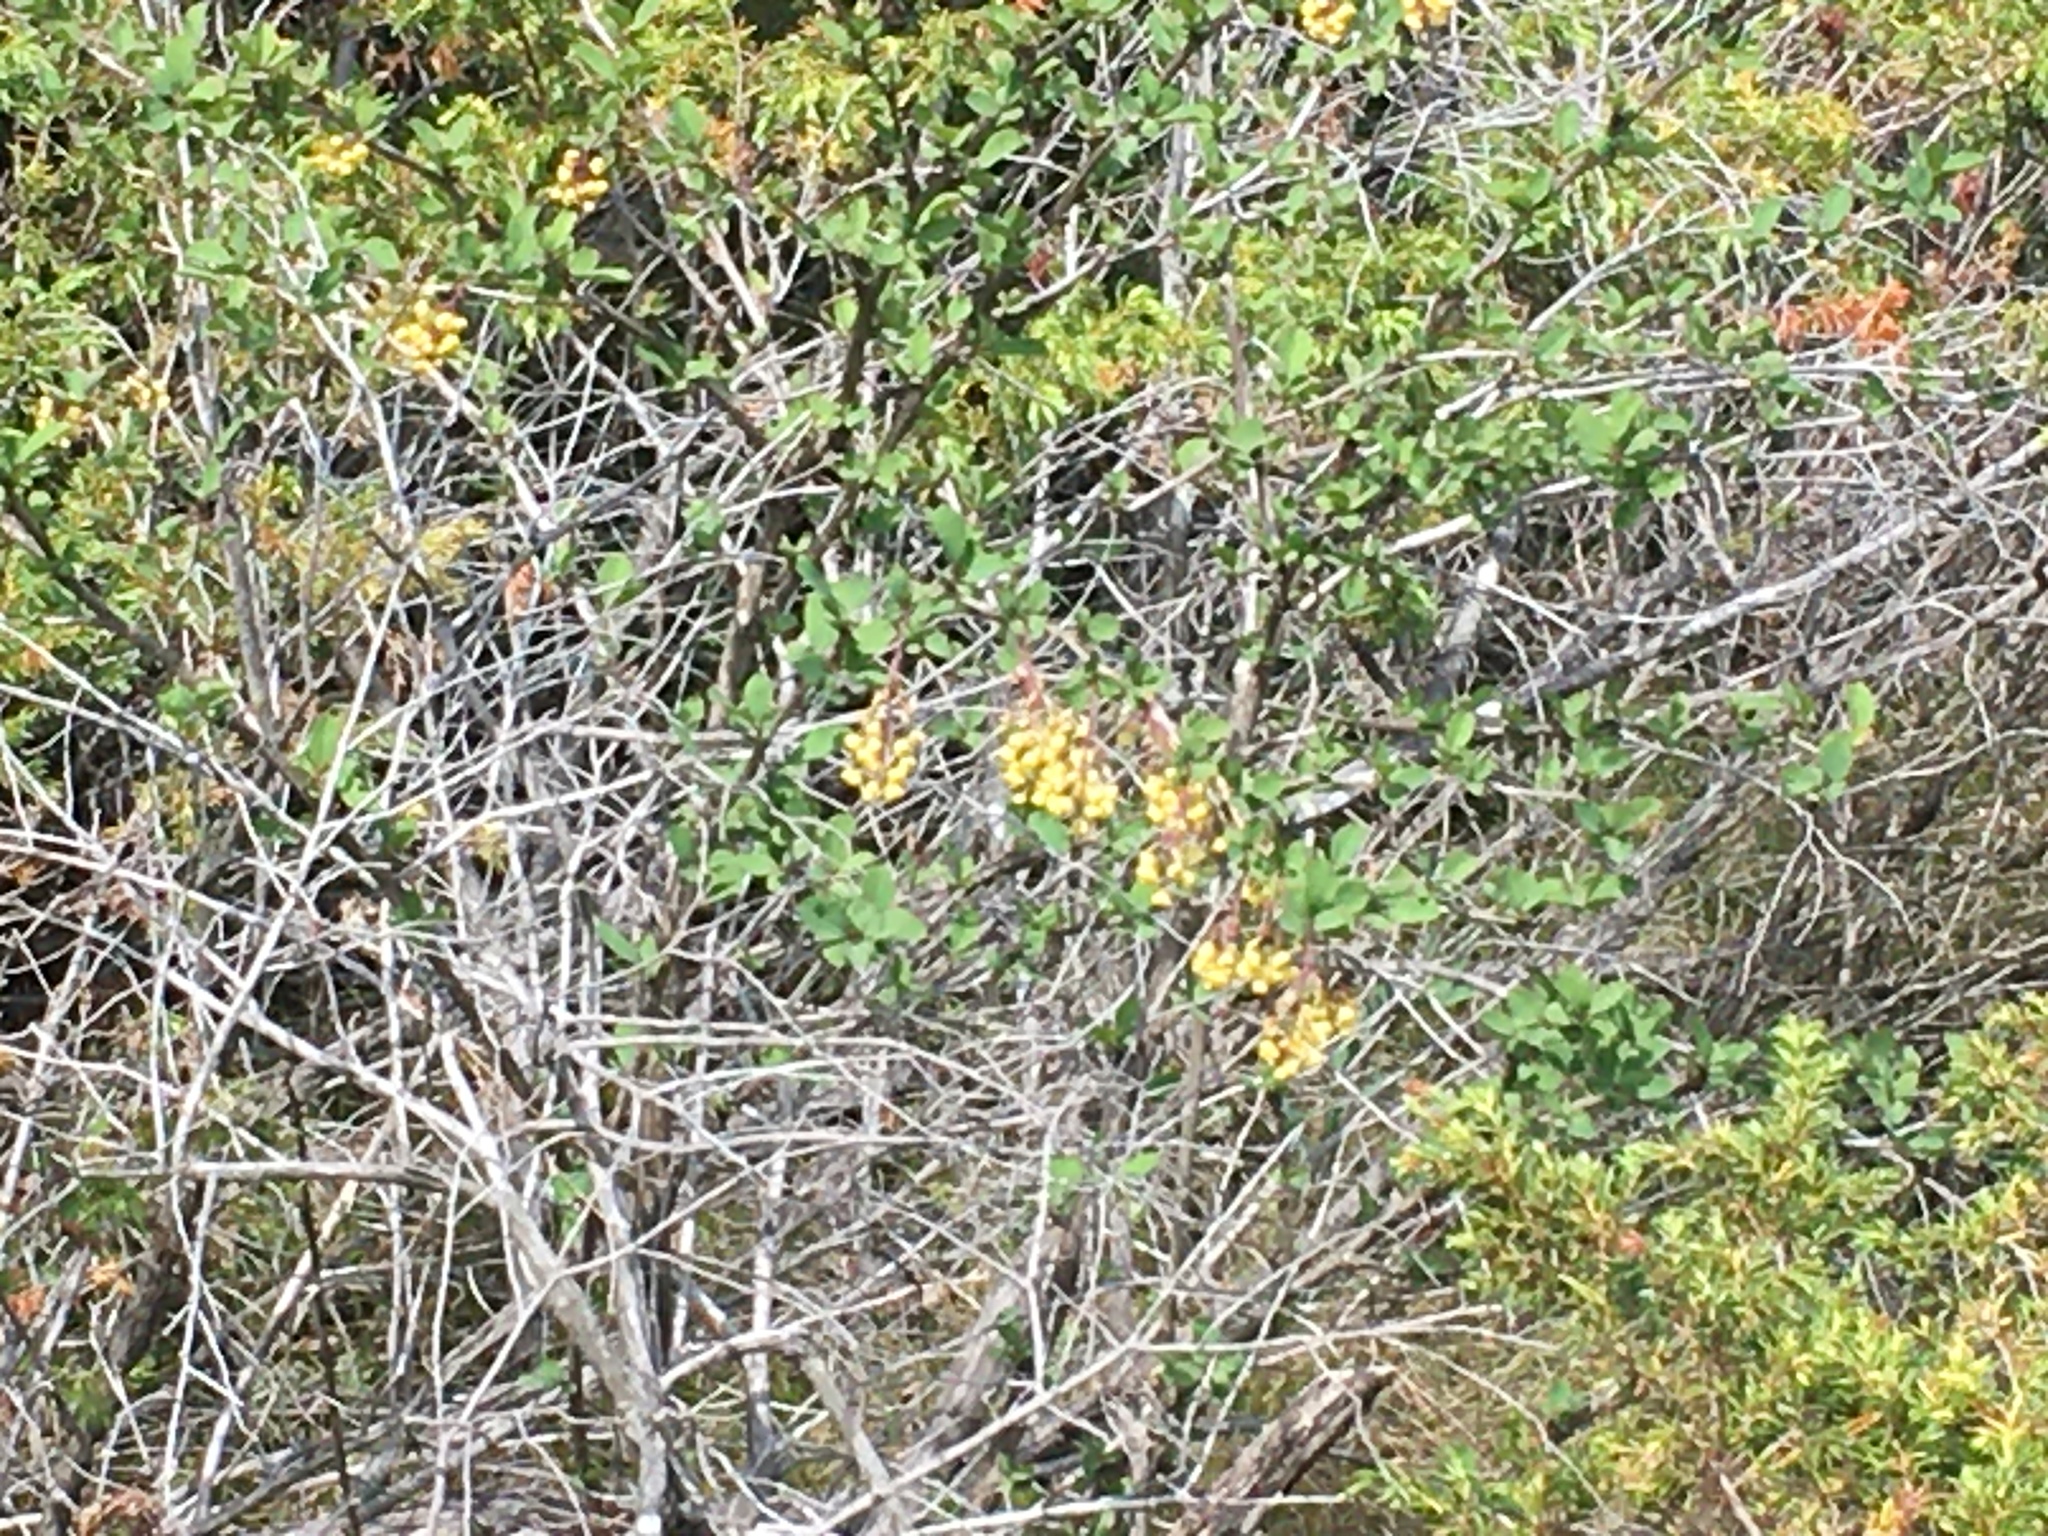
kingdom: Plantae
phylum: Tracheophyta
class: Magnoliopsida
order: Ranunculales
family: Berberidaceae
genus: Berberis
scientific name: Berberis vulgaris
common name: Barberry
